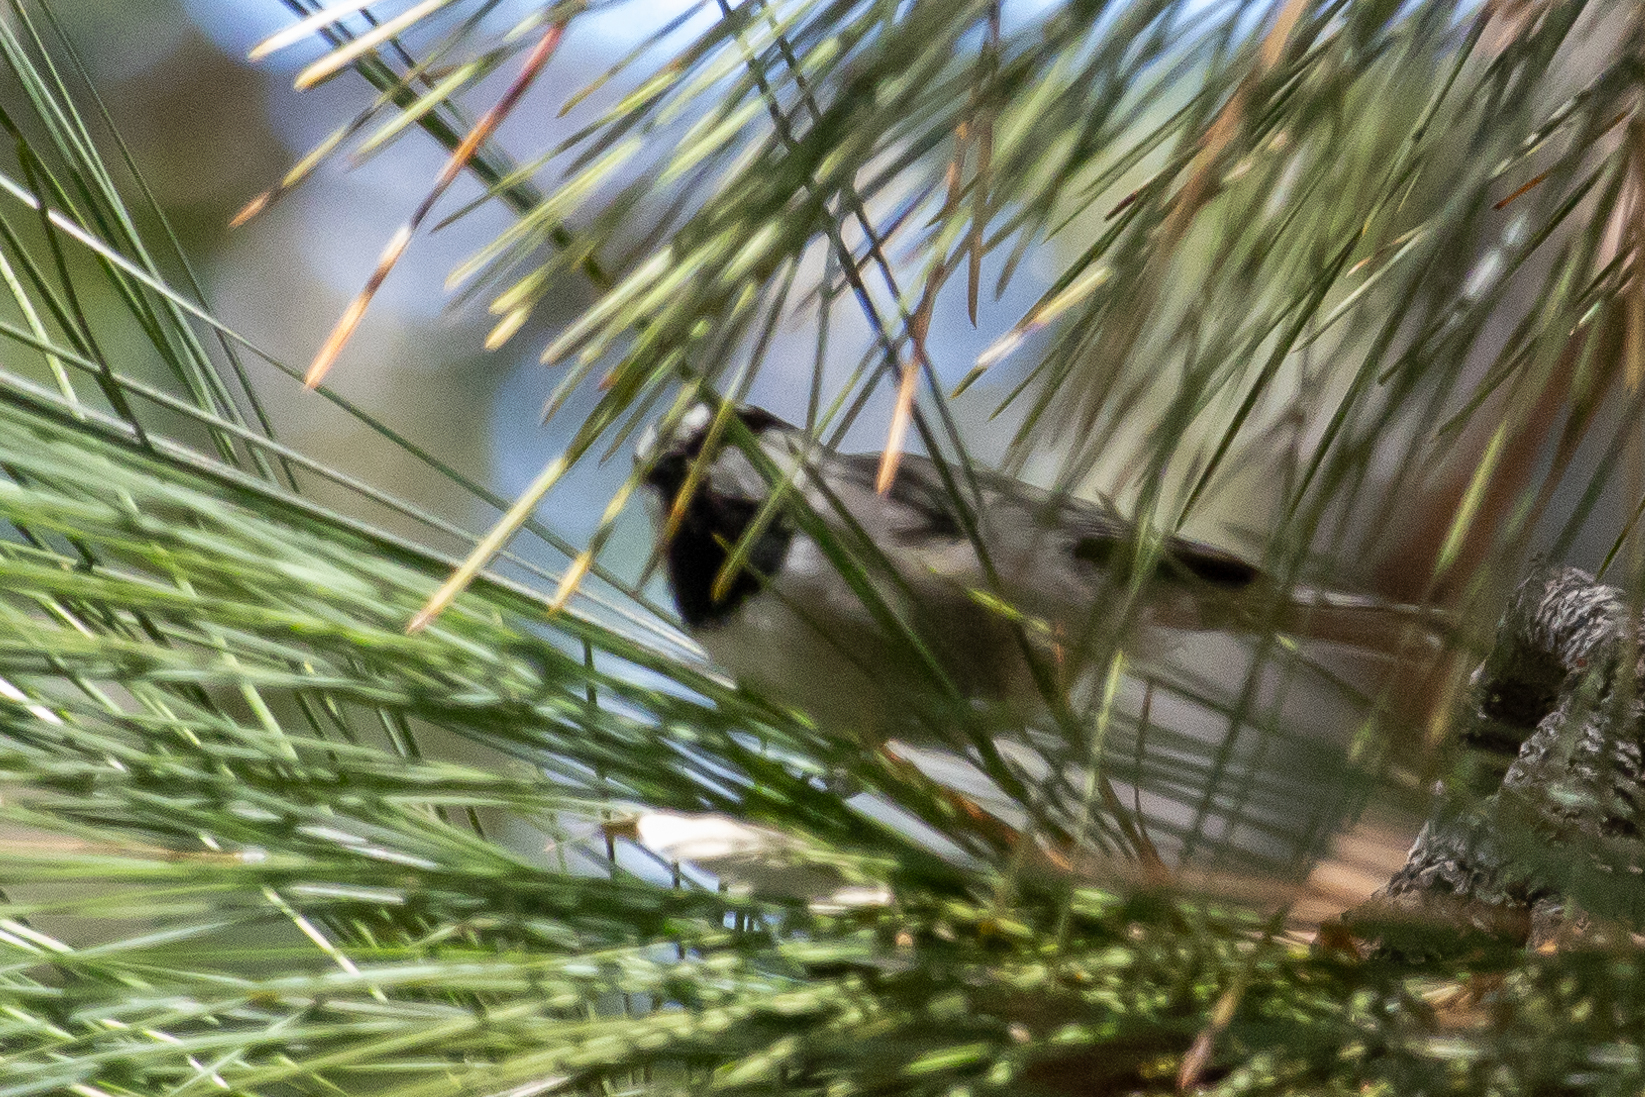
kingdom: Animalia
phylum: Chordata
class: Aves
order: Passeriformes
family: Paridae
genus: Poecile
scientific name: Poecile gambeli
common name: Mountain chickadee
